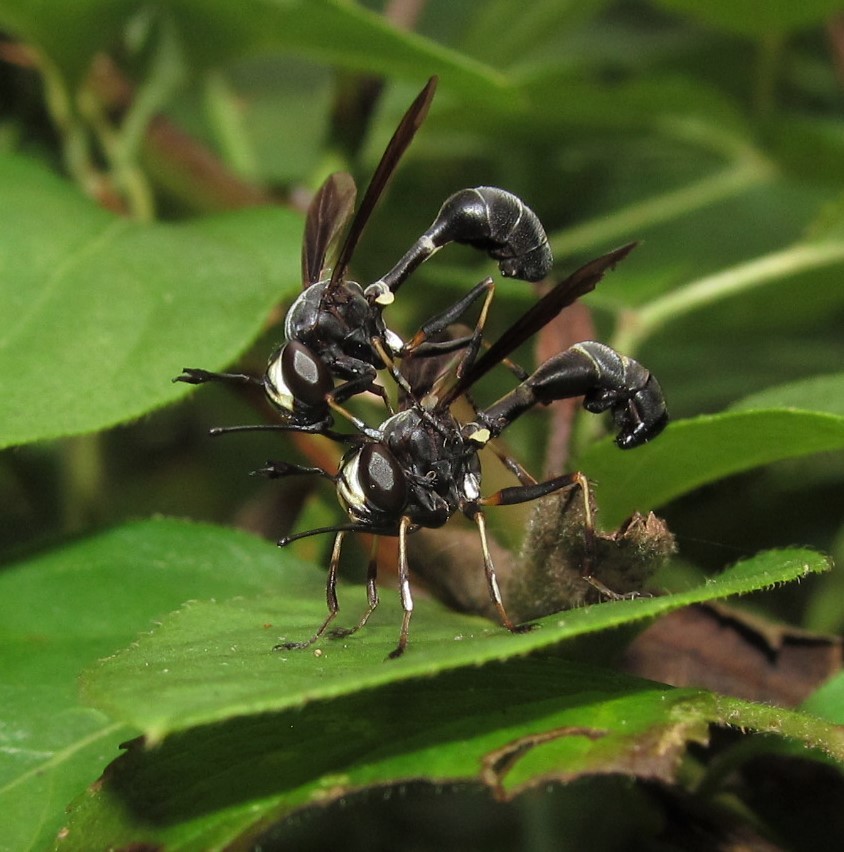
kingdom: Animalia
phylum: Arthropoda
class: Insecta
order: Diptera
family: Conopidae
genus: Physocephala
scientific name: Physocephala tibialis
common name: Common eastern physocephala
